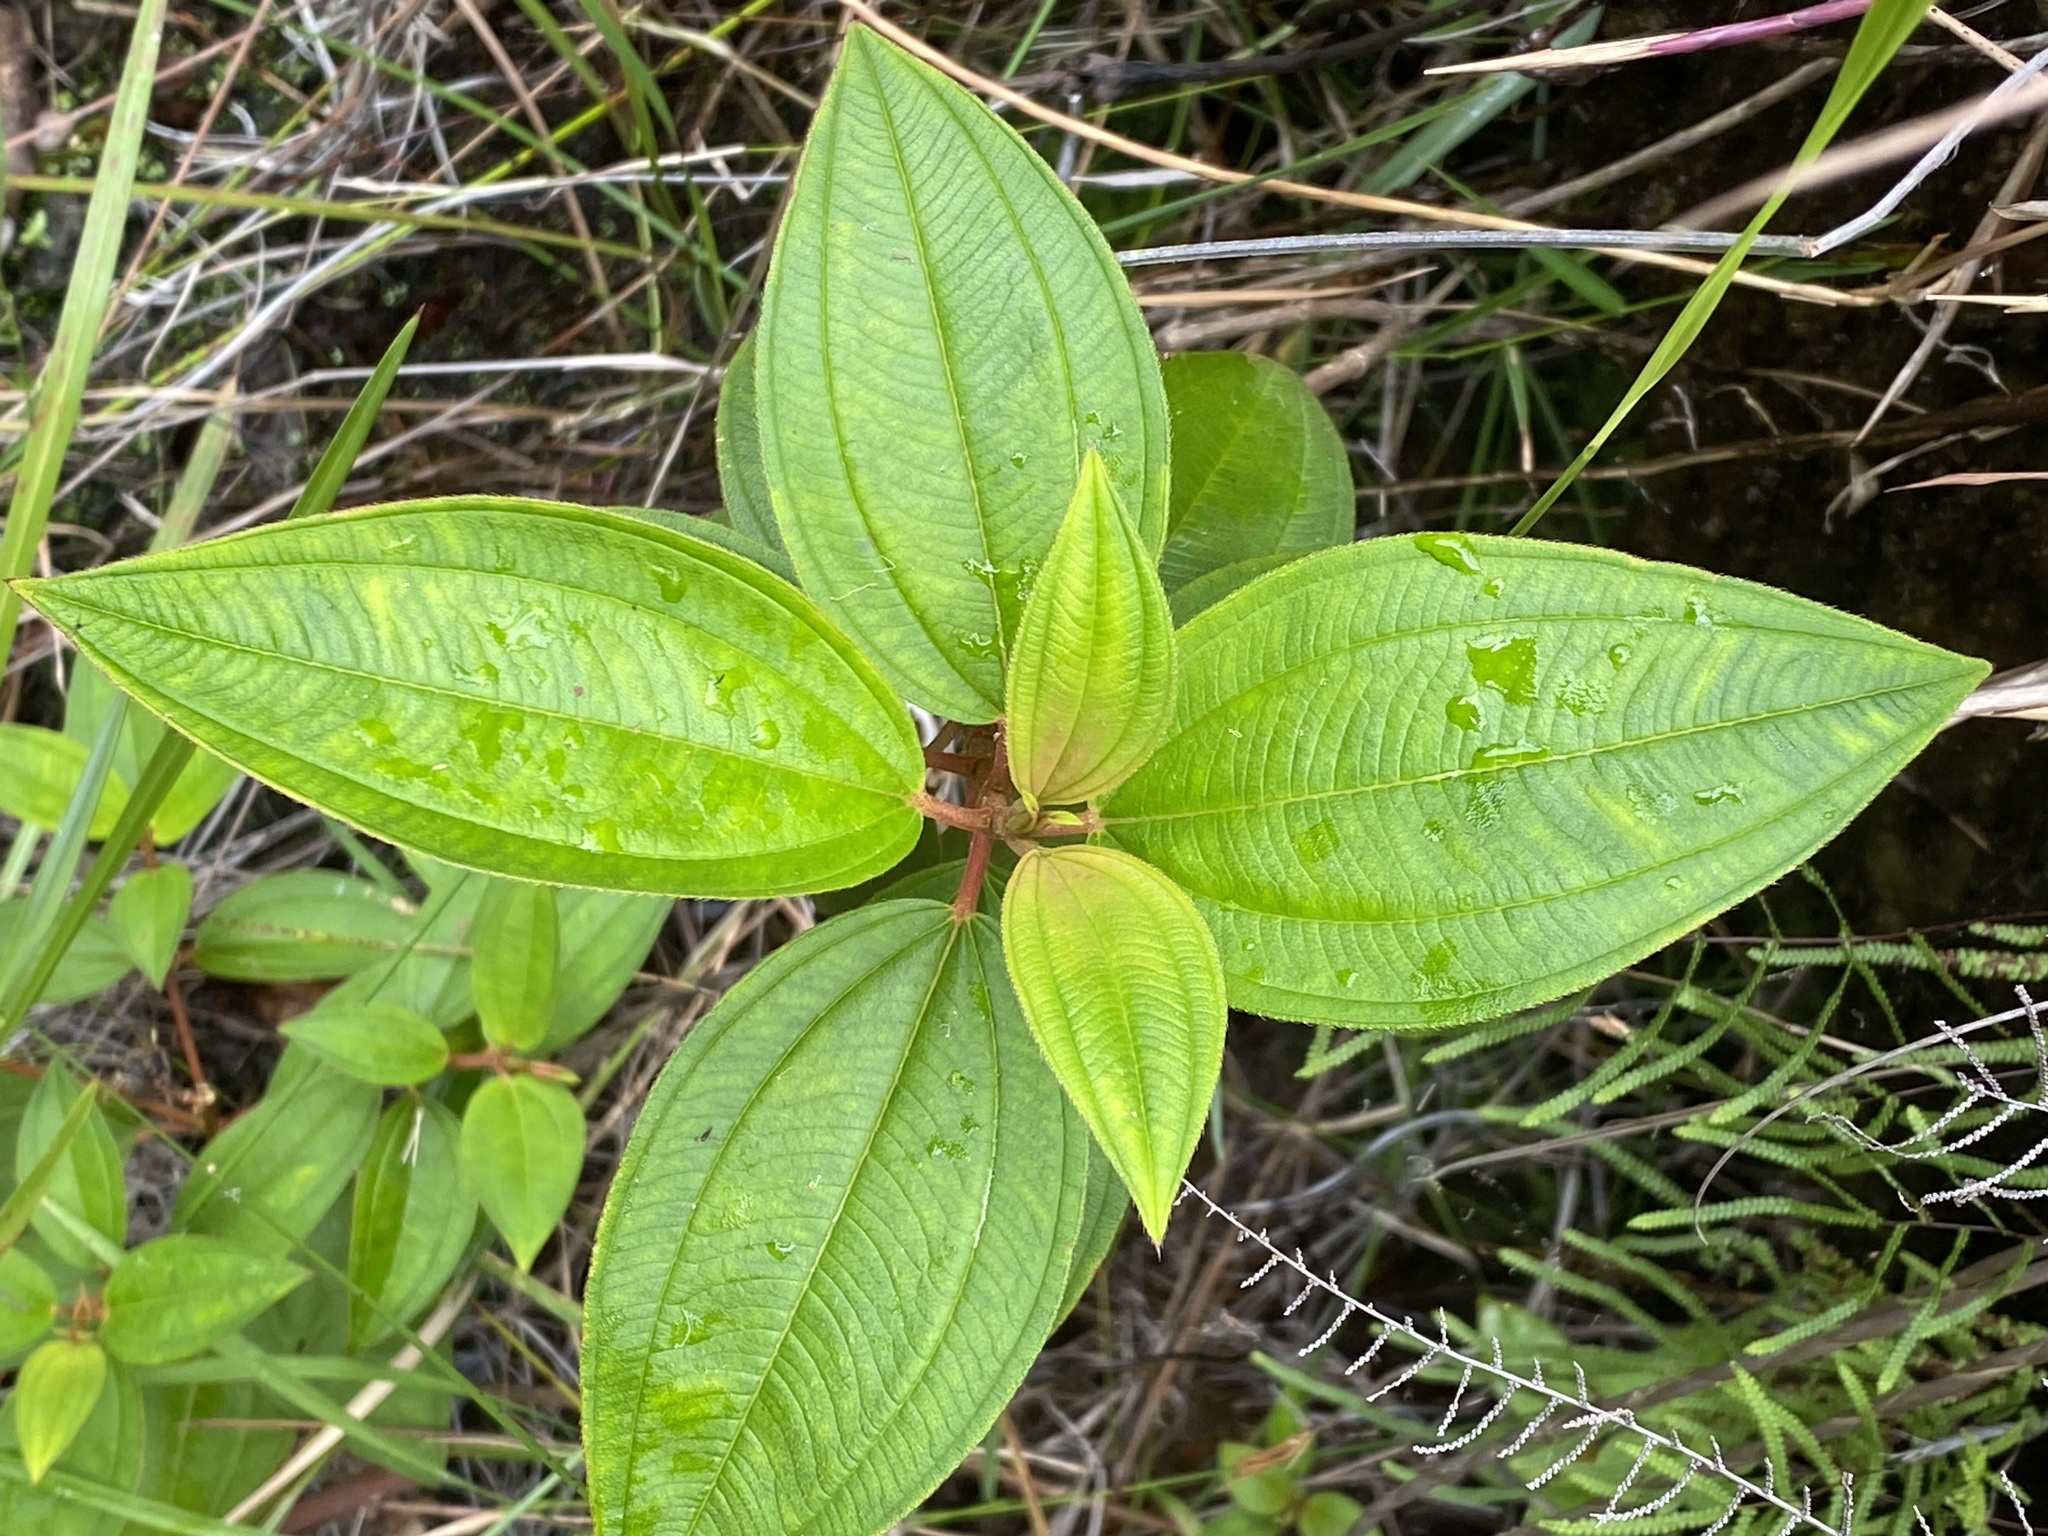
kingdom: Plantae
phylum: Tracheophyta
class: Magnoliopsida
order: Myrtales
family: Melastomataceae
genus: Melastoma
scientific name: Melastoma malabathricum
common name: Indian-rhododendron
